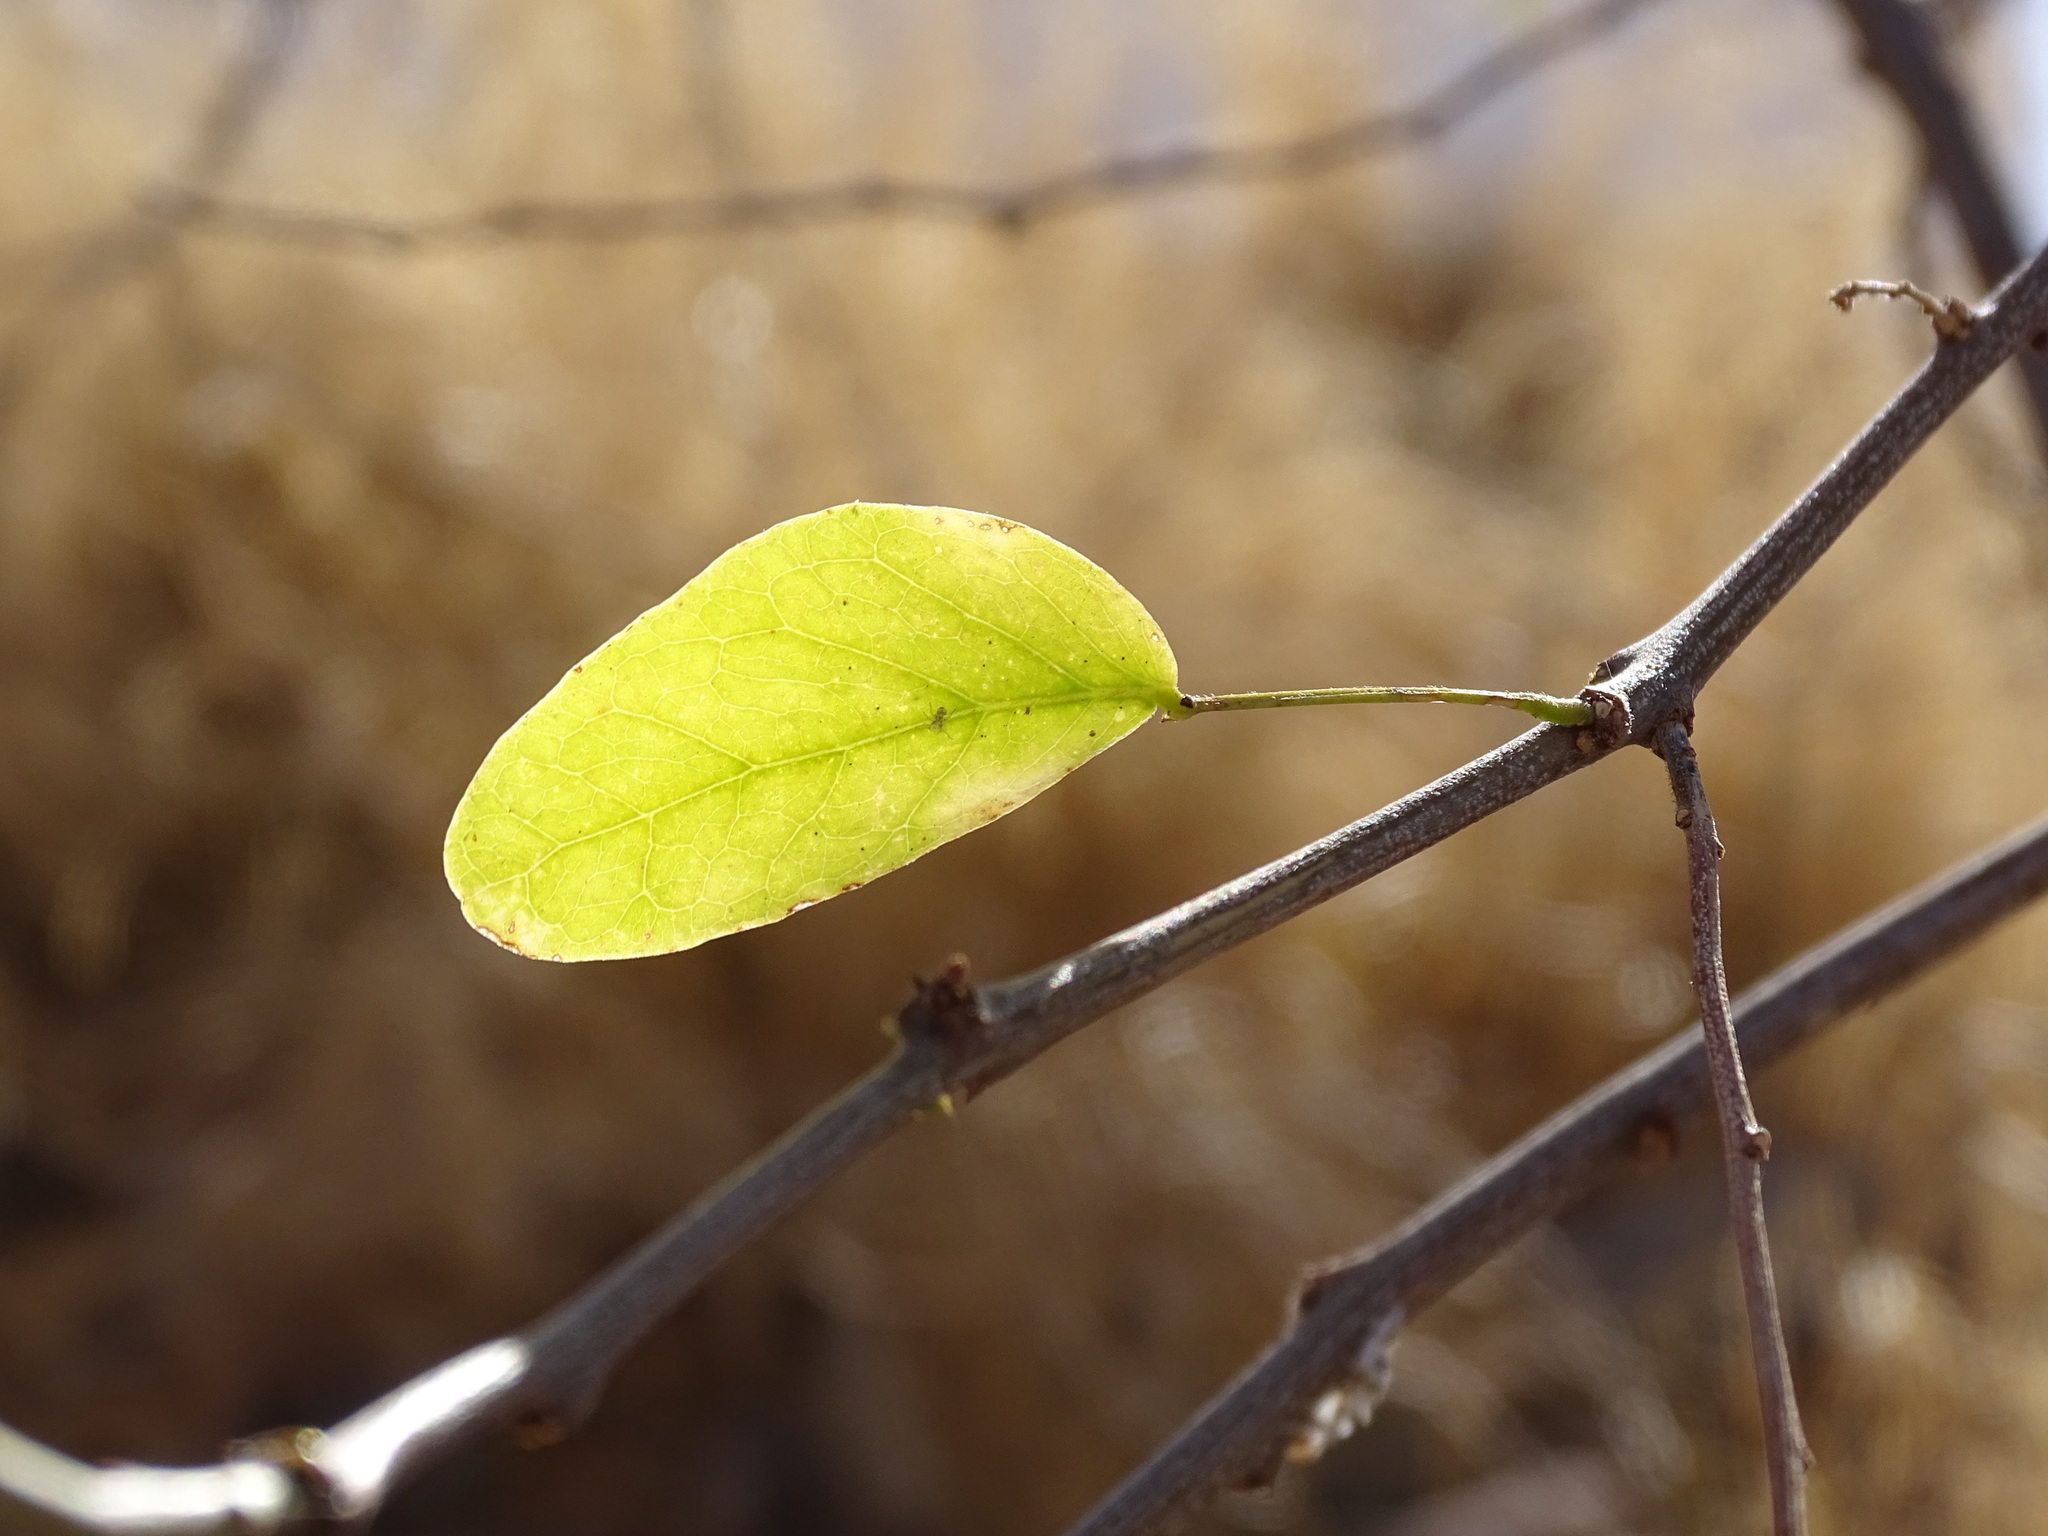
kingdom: Plantae
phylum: Tracheophyta
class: Magnoliopsida
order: Fabales
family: Fabaceae
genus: Pithecellobium
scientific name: Pithecellobium dulce
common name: Monkeypod
